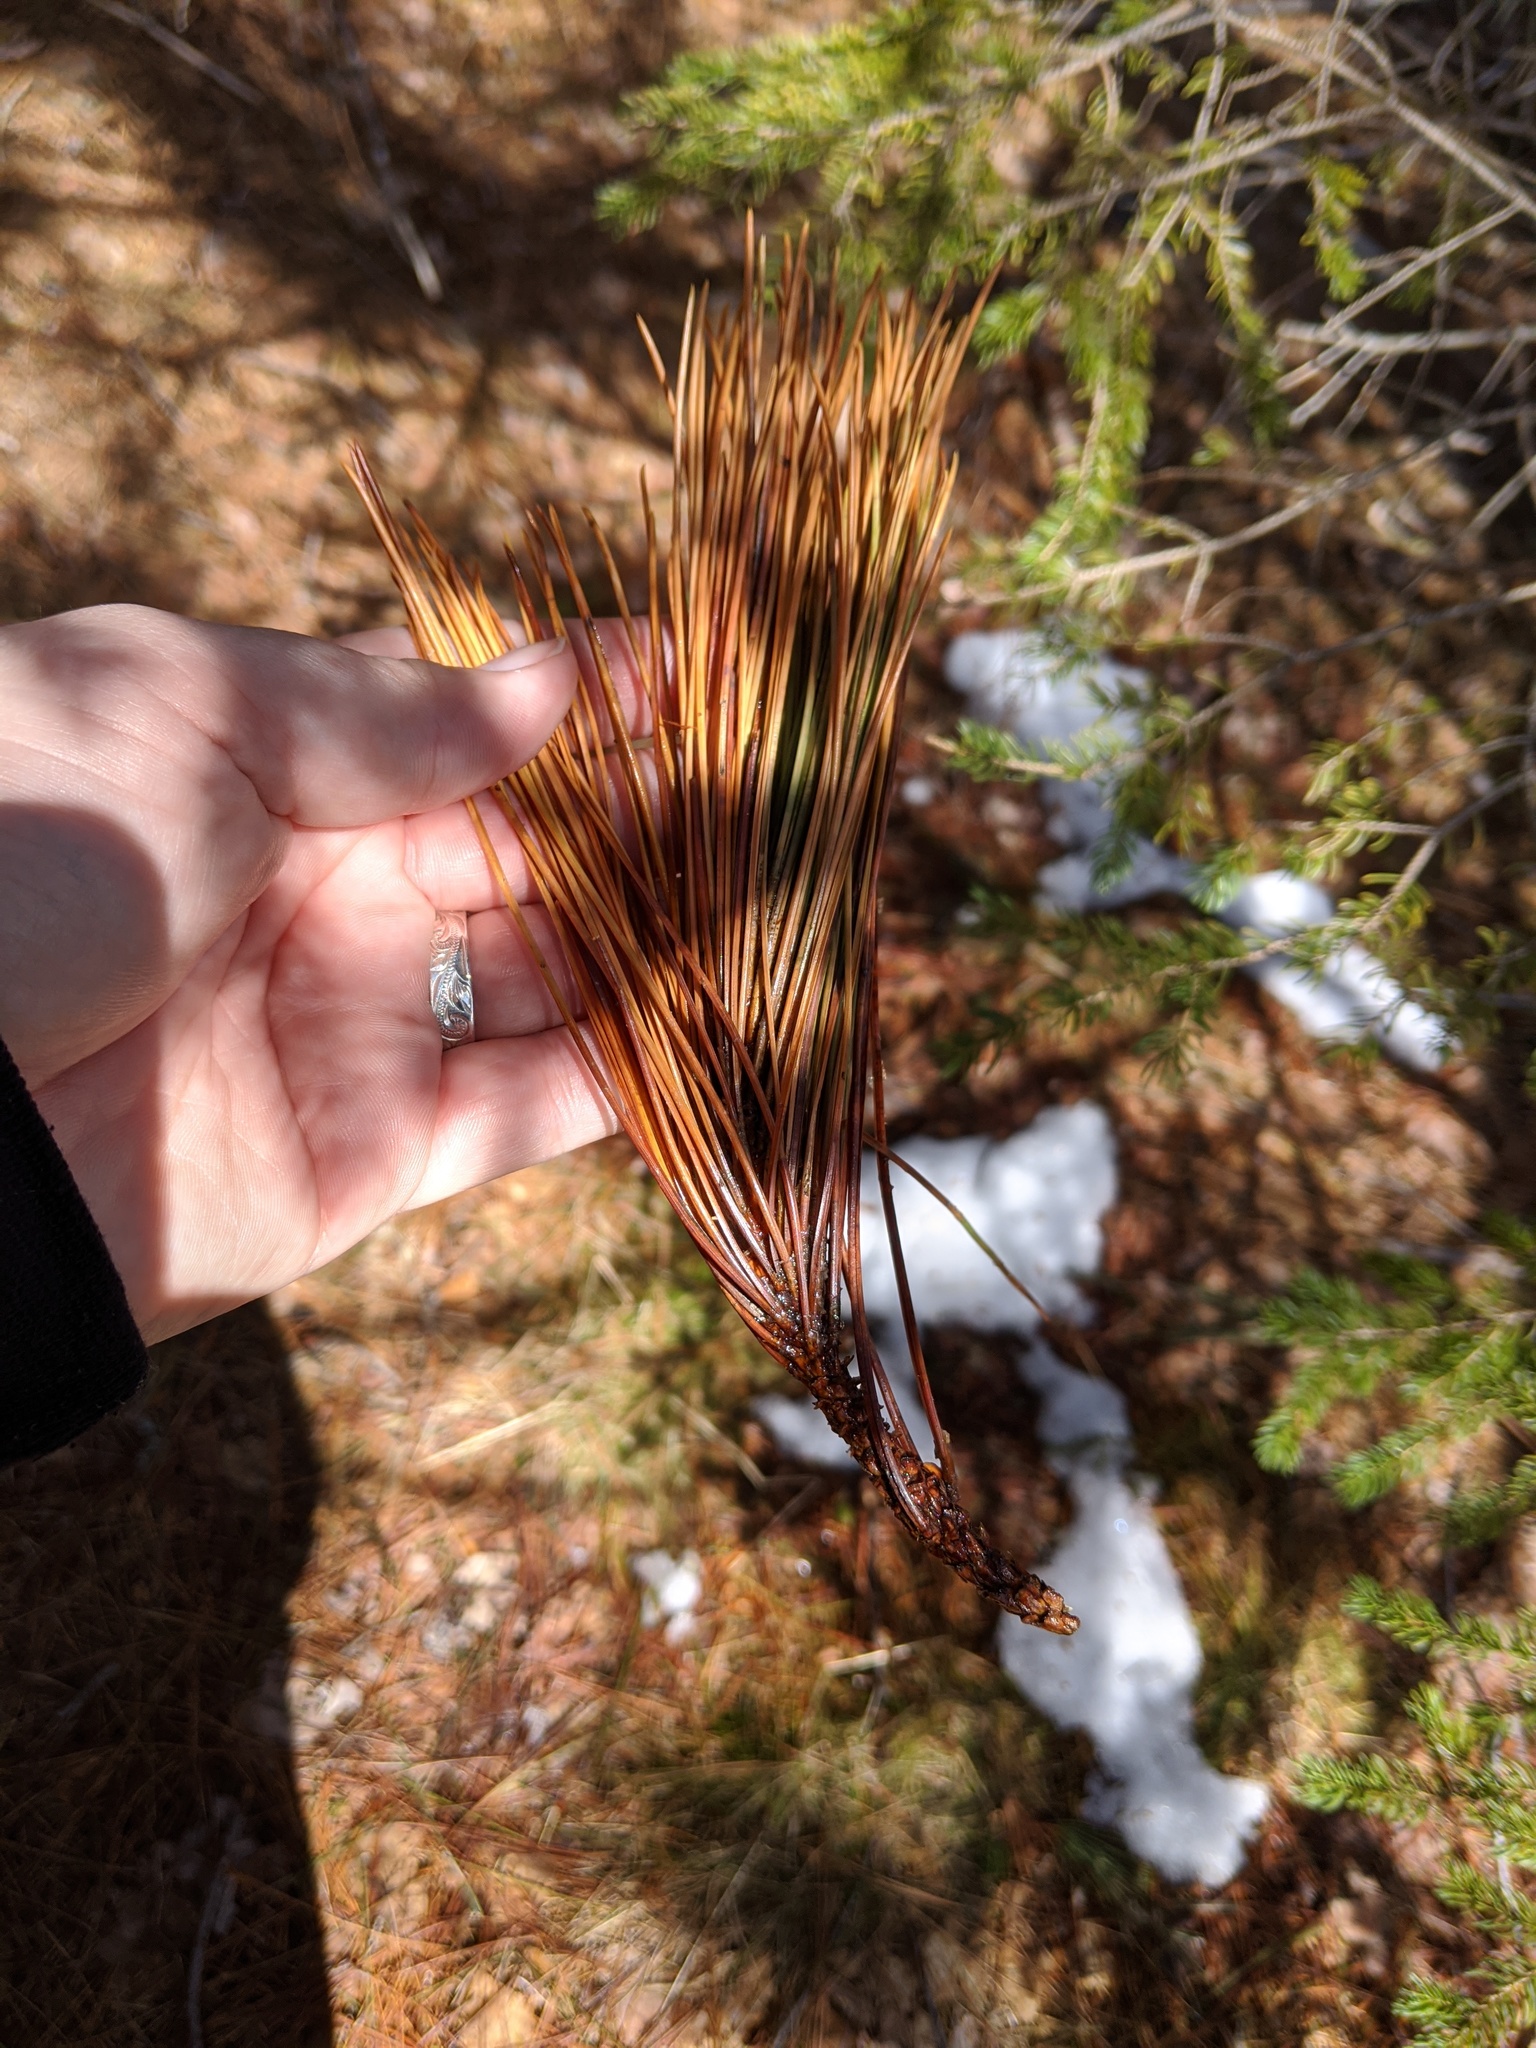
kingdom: Plantae
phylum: Tracheophyta
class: Pinopsida
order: Pinales
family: Pinaceae
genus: Pinus
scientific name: Pinus resinosa
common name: Norway pine
